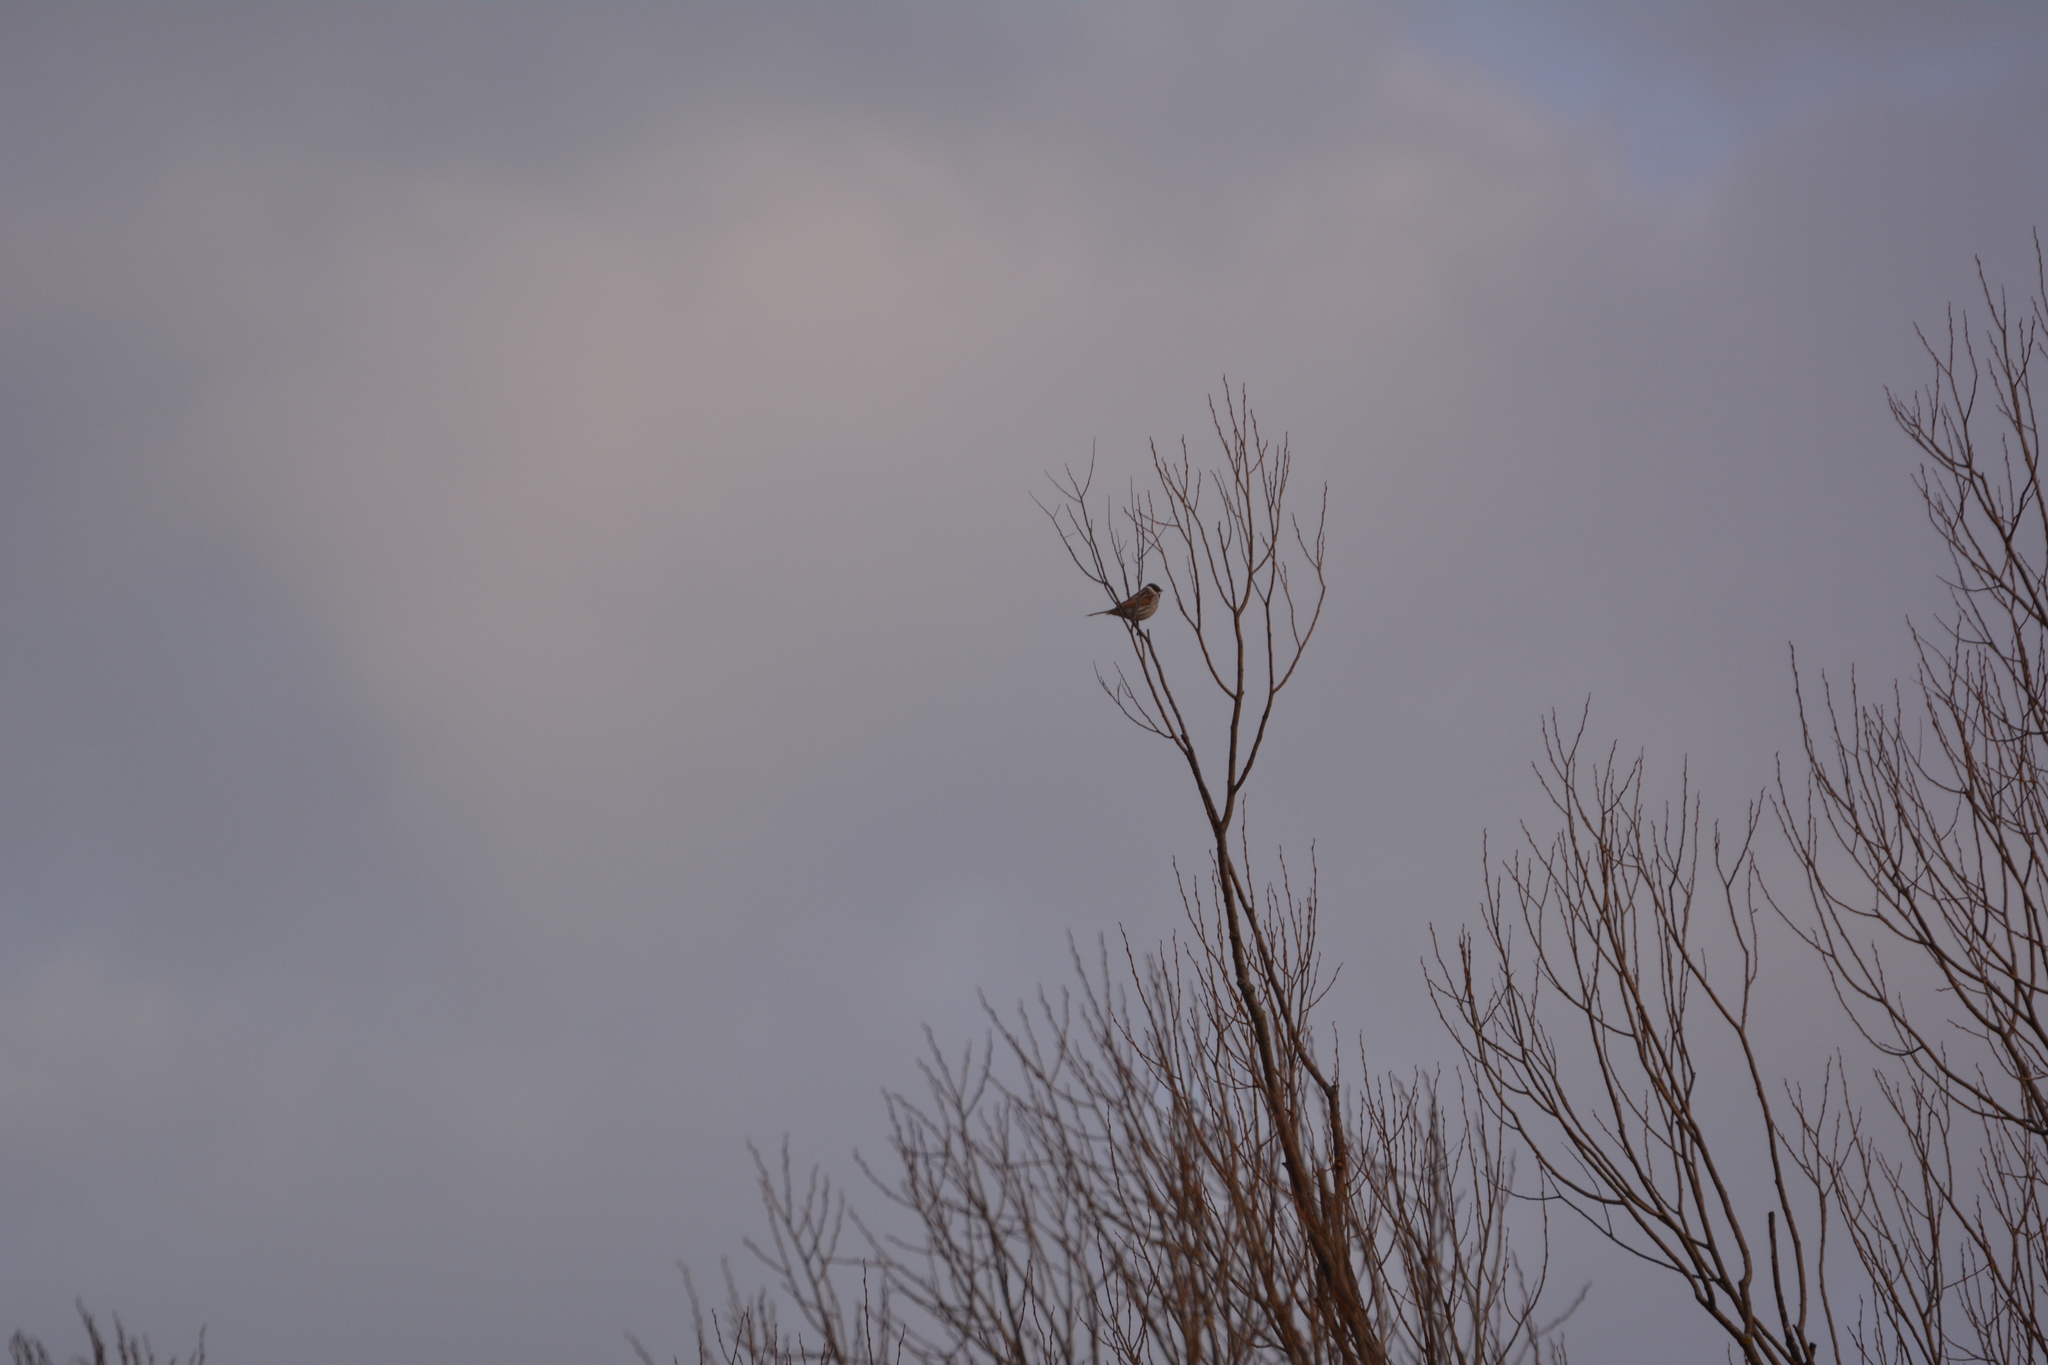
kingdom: Animalia
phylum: Chordata
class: Aves
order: Passeriformes
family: Emberizidae
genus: Emberiza
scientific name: Emberiza schoeniclus
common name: Reed bunting
